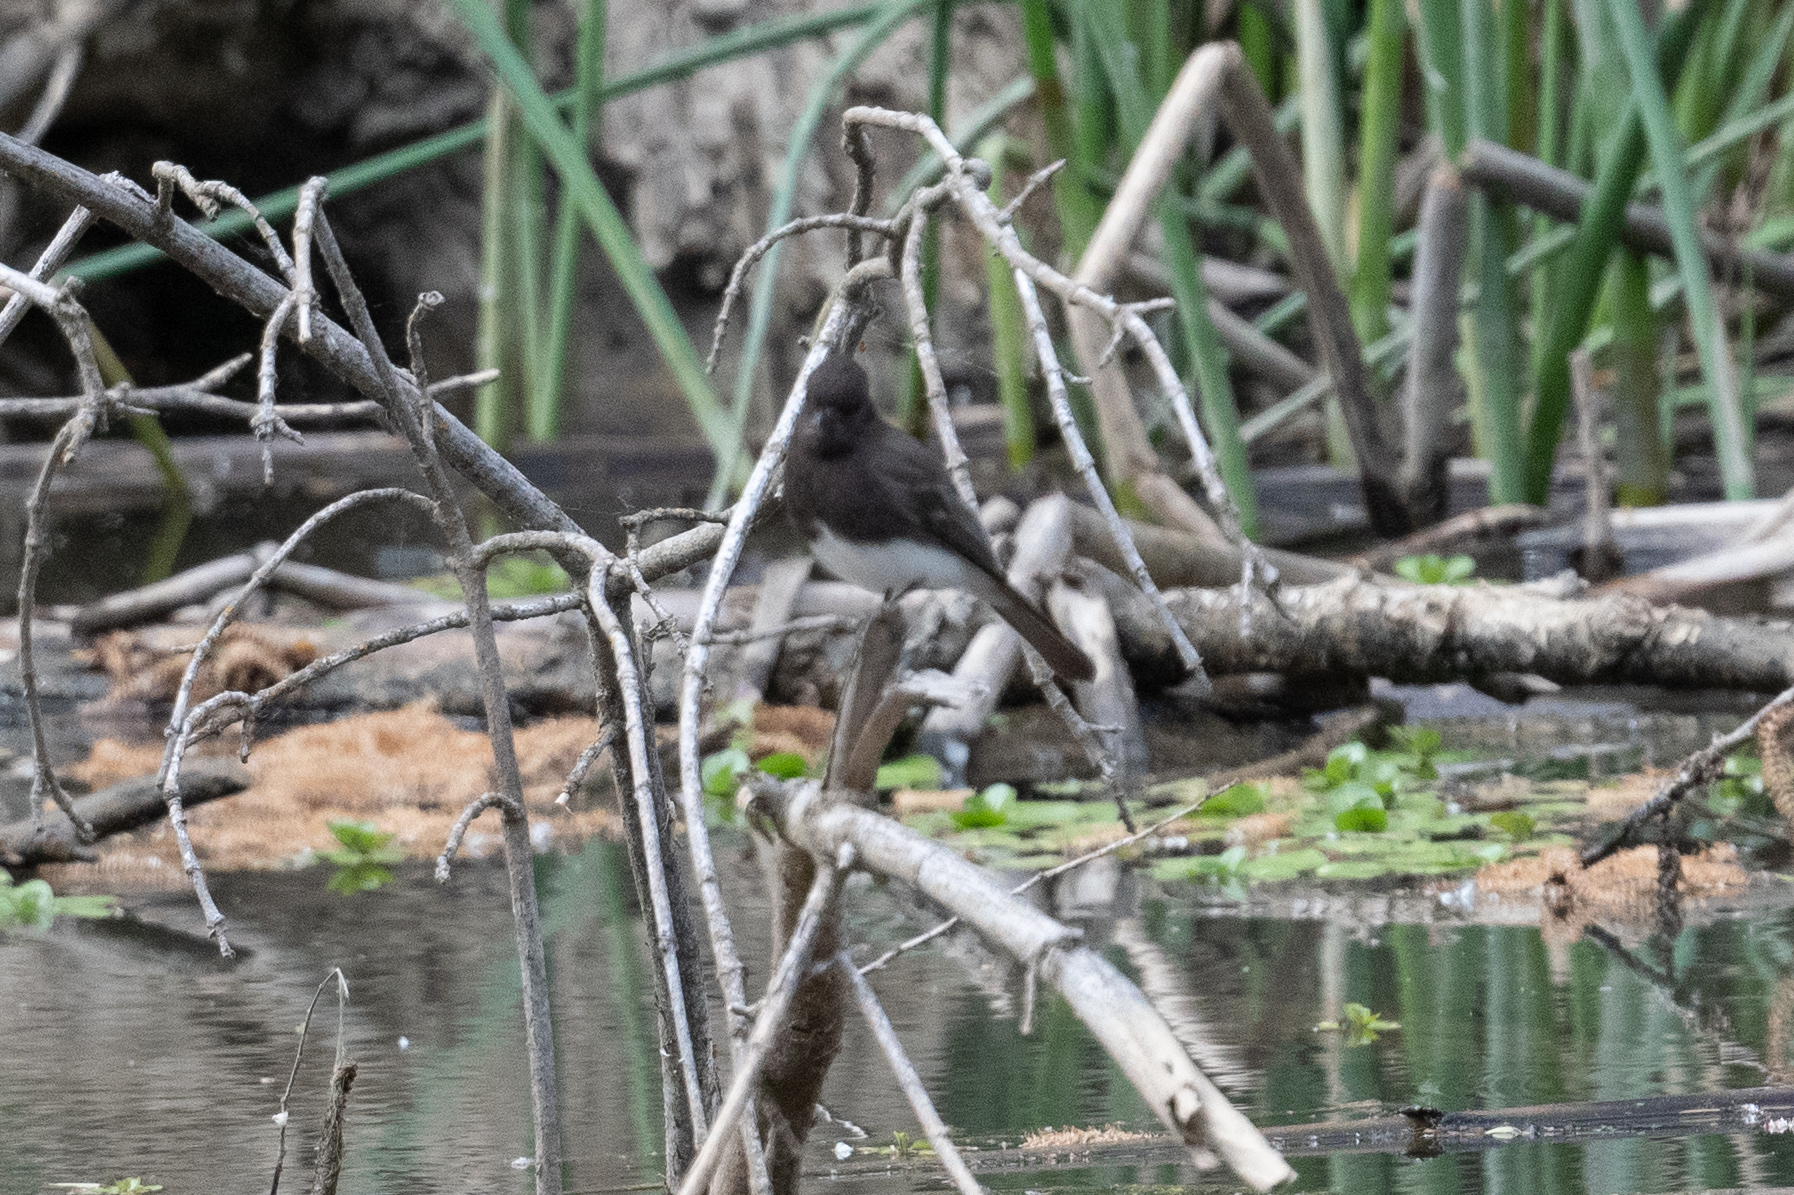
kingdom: Animalia
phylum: Chordata
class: Aves
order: Passeriformes
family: Tyrannidae
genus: Sayornis
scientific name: Sayornis nigricans
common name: Black phoebe
